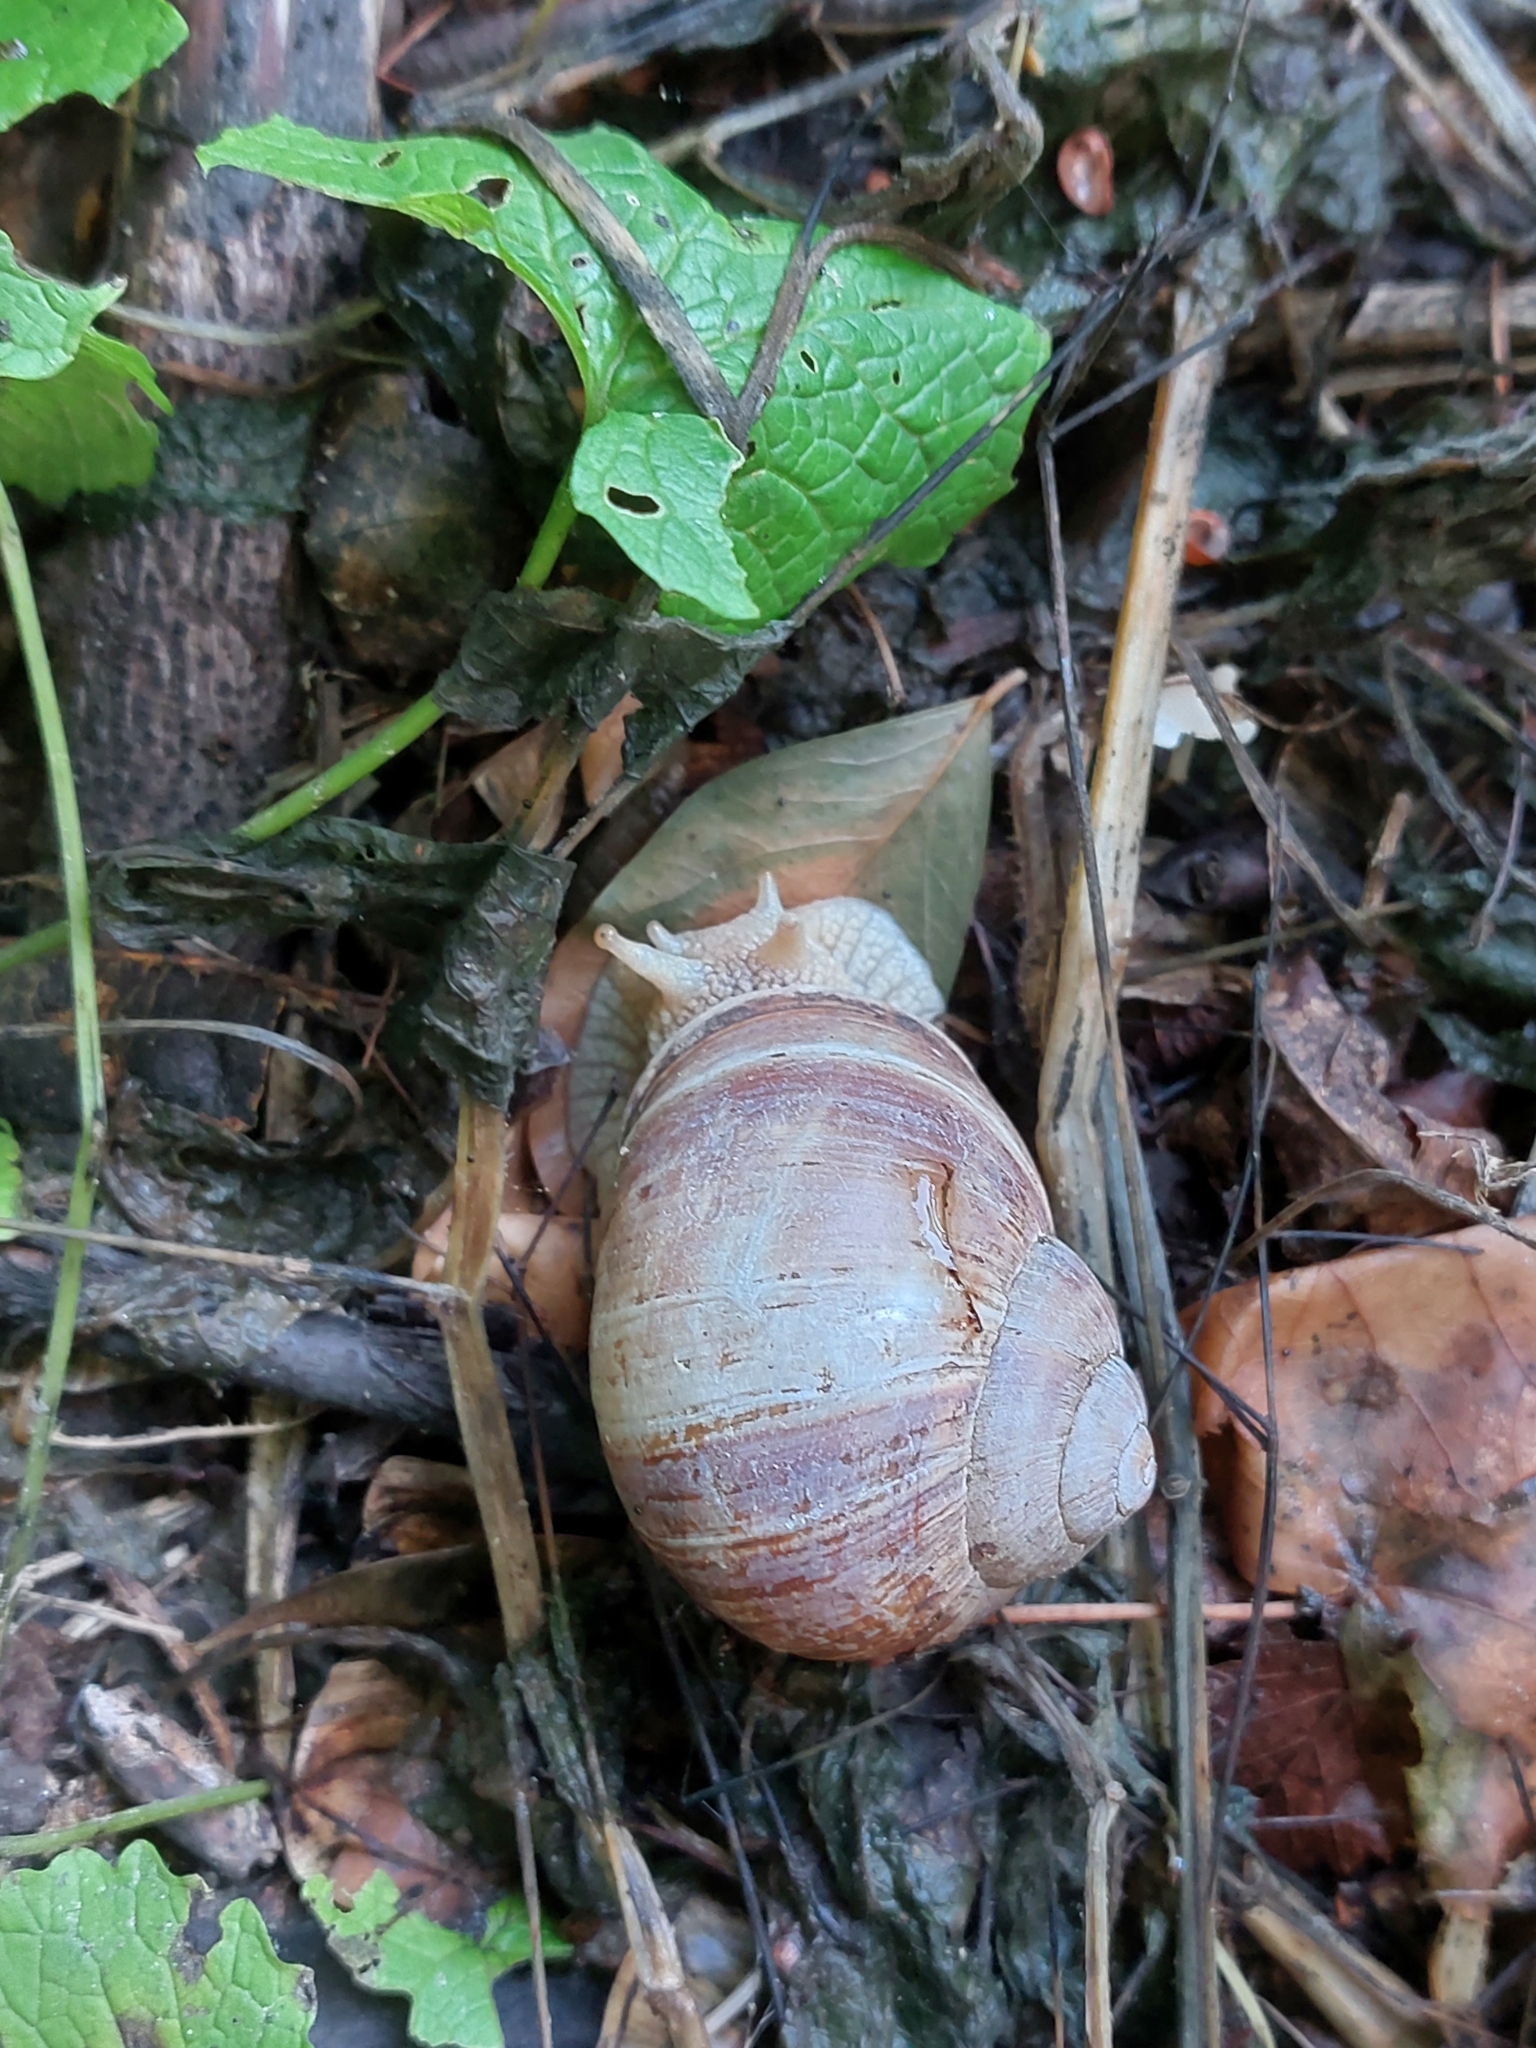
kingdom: Animalia
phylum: Mollusca
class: Gastropoda
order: Stylommatophora
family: Helicidae
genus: Helix
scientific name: Helix pomatia
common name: Roman snail
